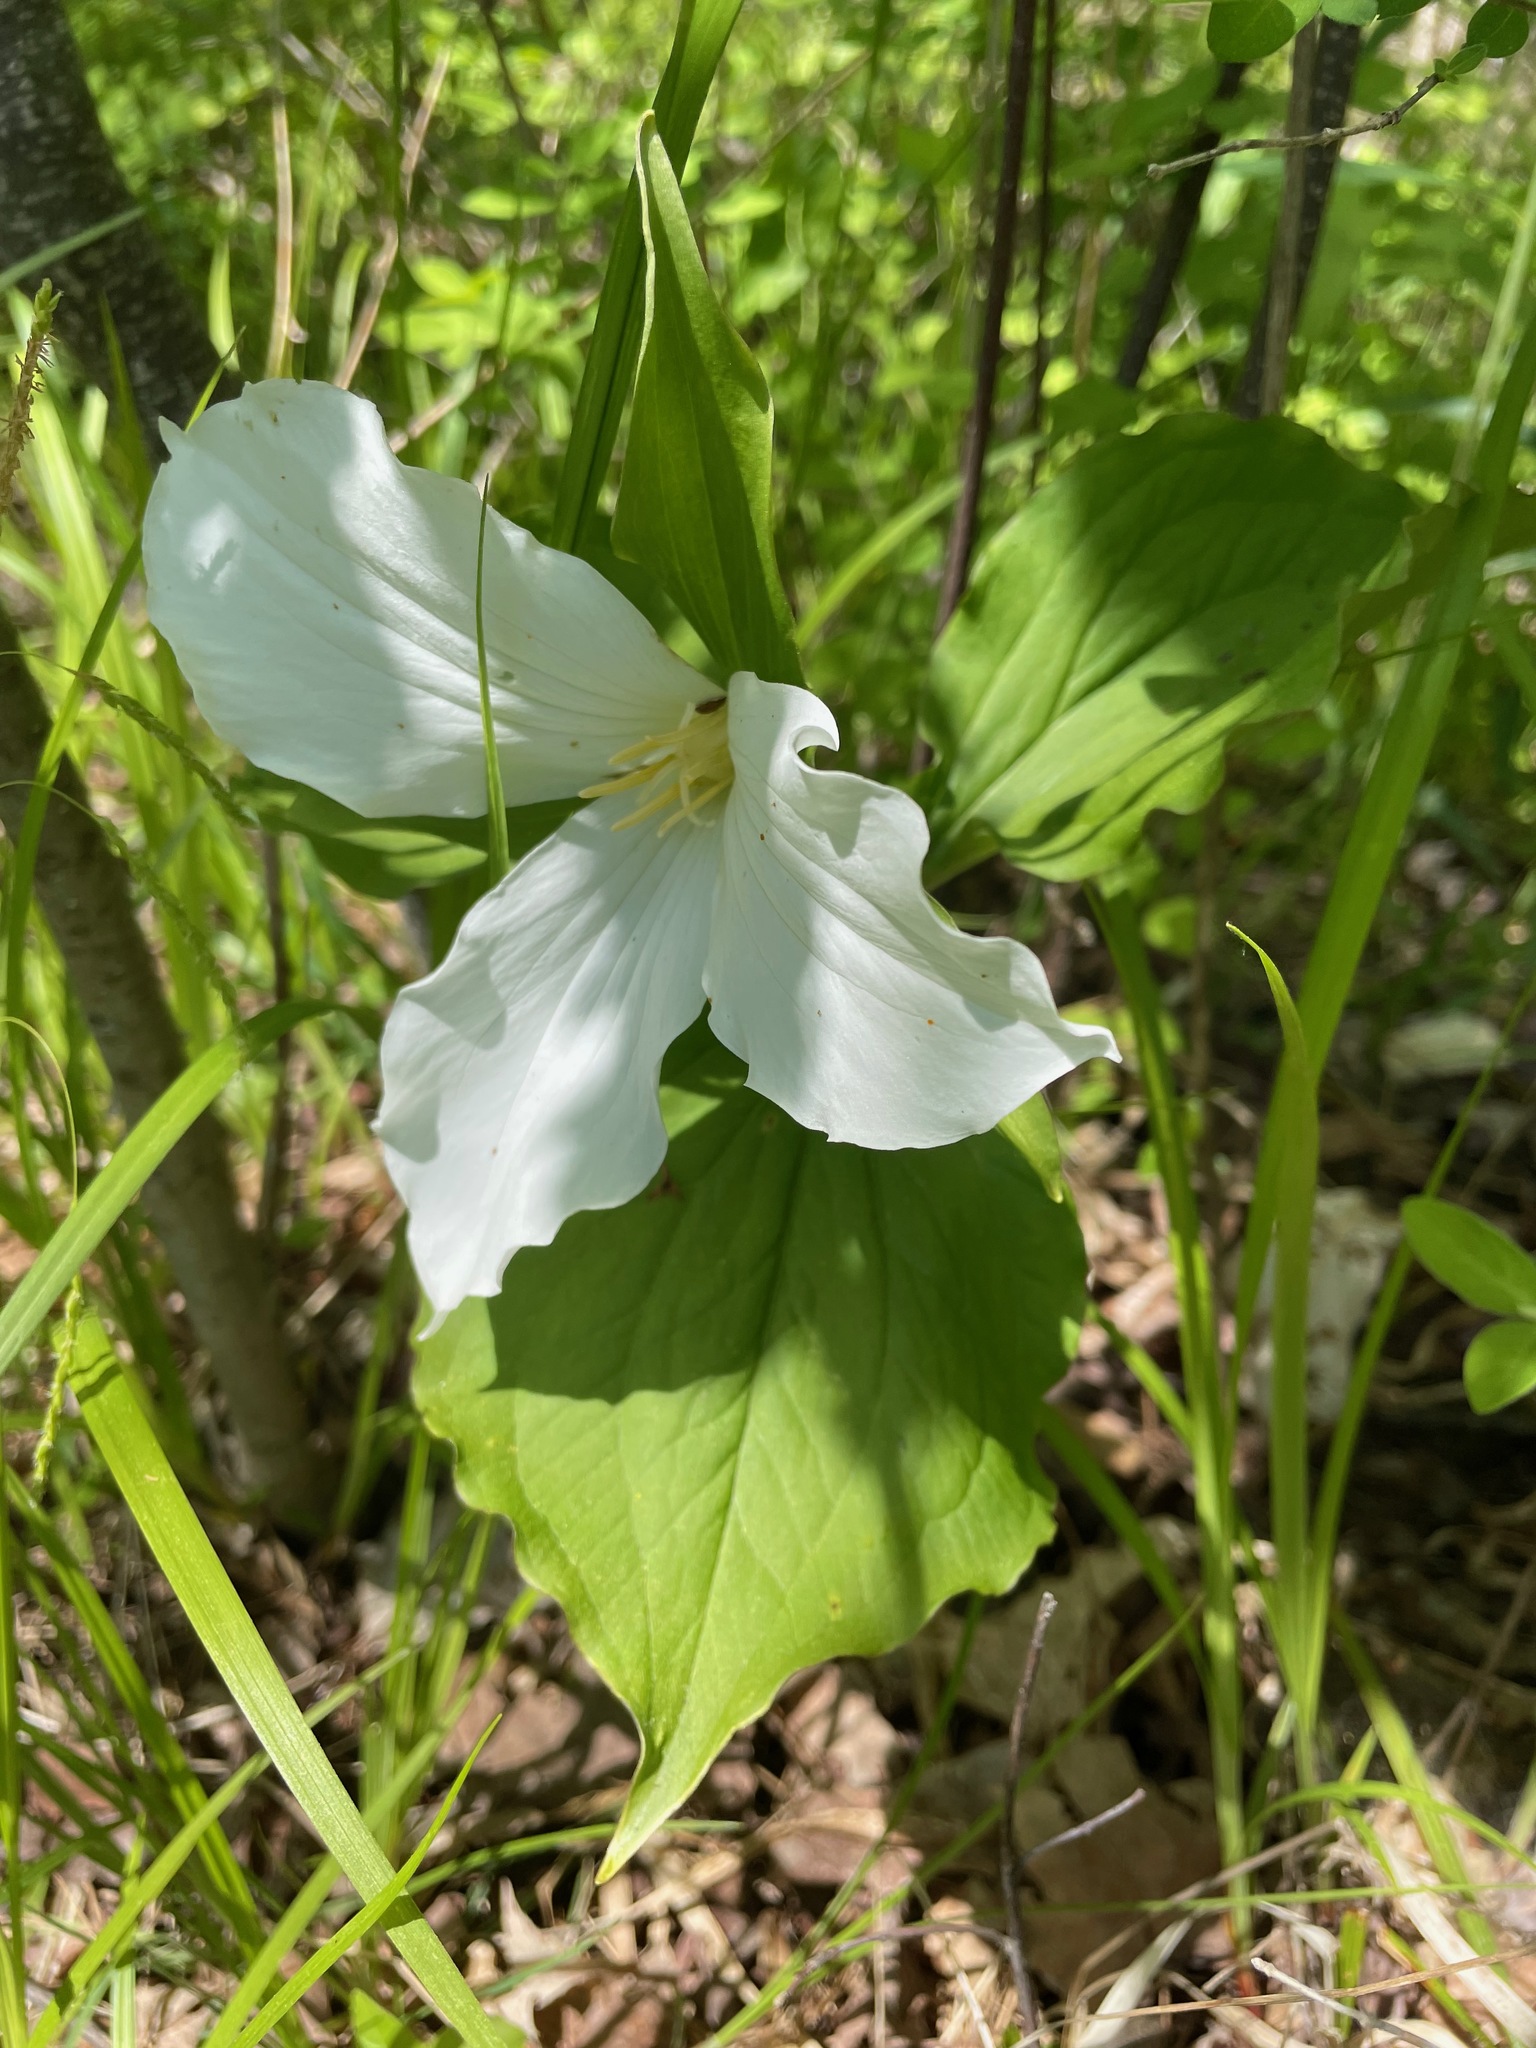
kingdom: Plantae
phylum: Tracheophyta
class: Liliopsida
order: Liliales
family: Melanthiaceae
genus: Trillium
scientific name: Trillium grandiflorum
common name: Great white trillium
